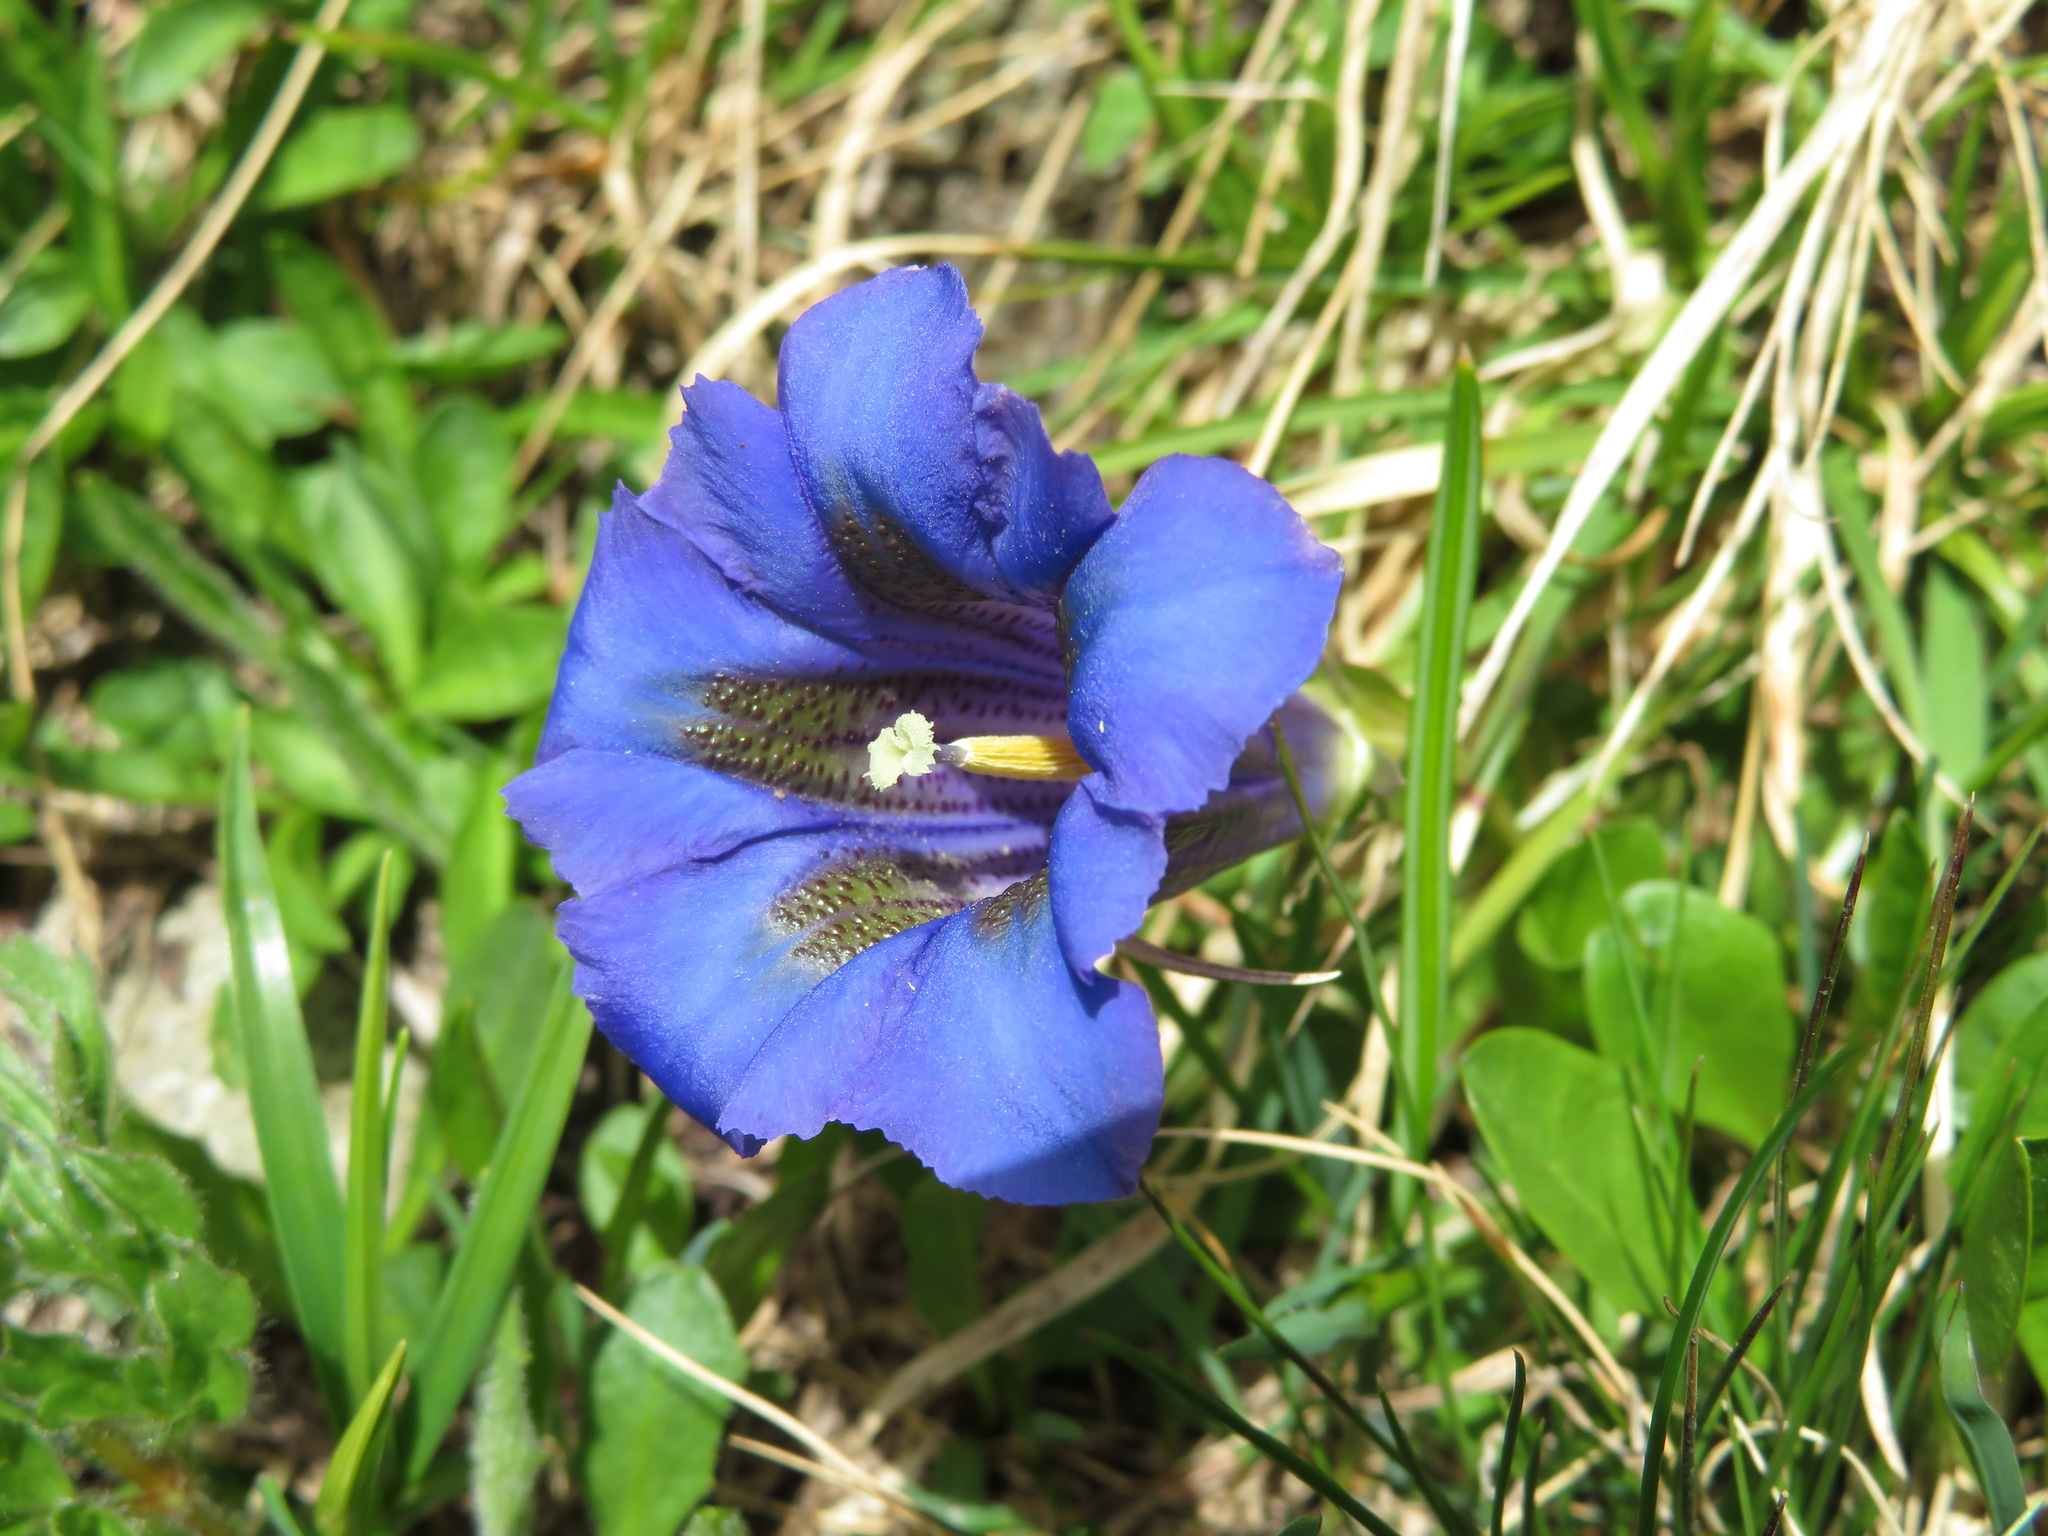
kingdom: Plantae
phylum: Tracheophyta
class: Magnoliopsida
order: Gentianales
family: Gentianaceae
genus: Gentiana
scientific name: Gentiana acaulis
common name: Trumpet gentian
